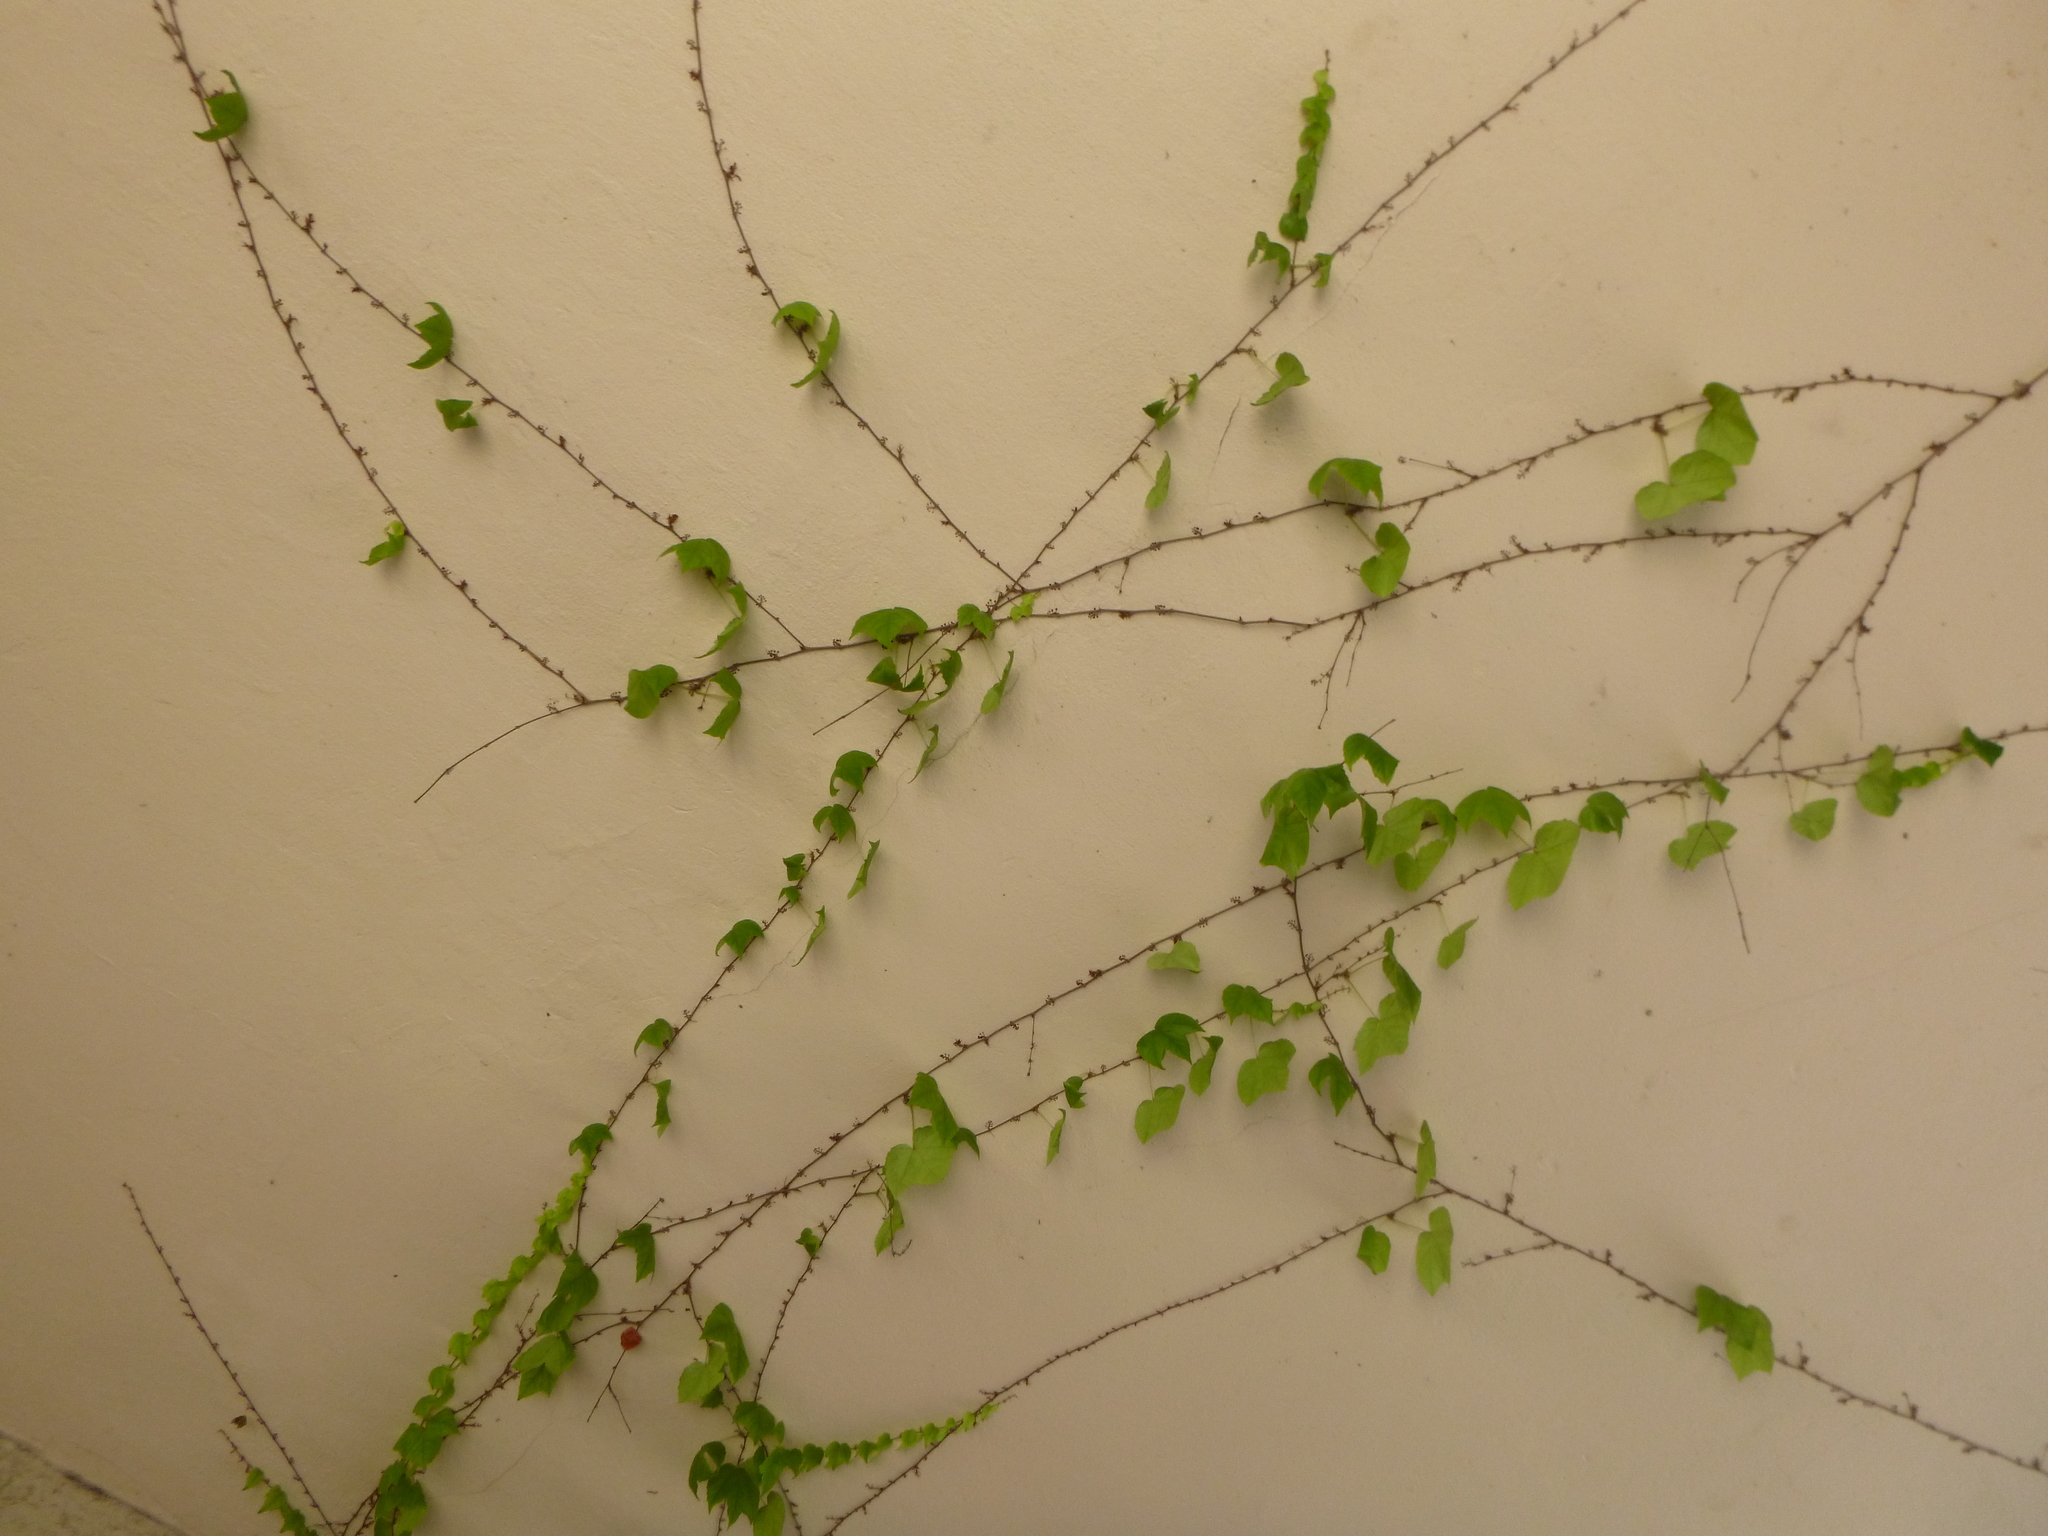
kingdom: Plantae
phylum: Tracheophyta
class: Magnoliopsida
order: Vitales
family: Vitaceae
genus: Parthenocissus
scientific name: Parthenocissus tricuspidata
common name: Boston ivy
